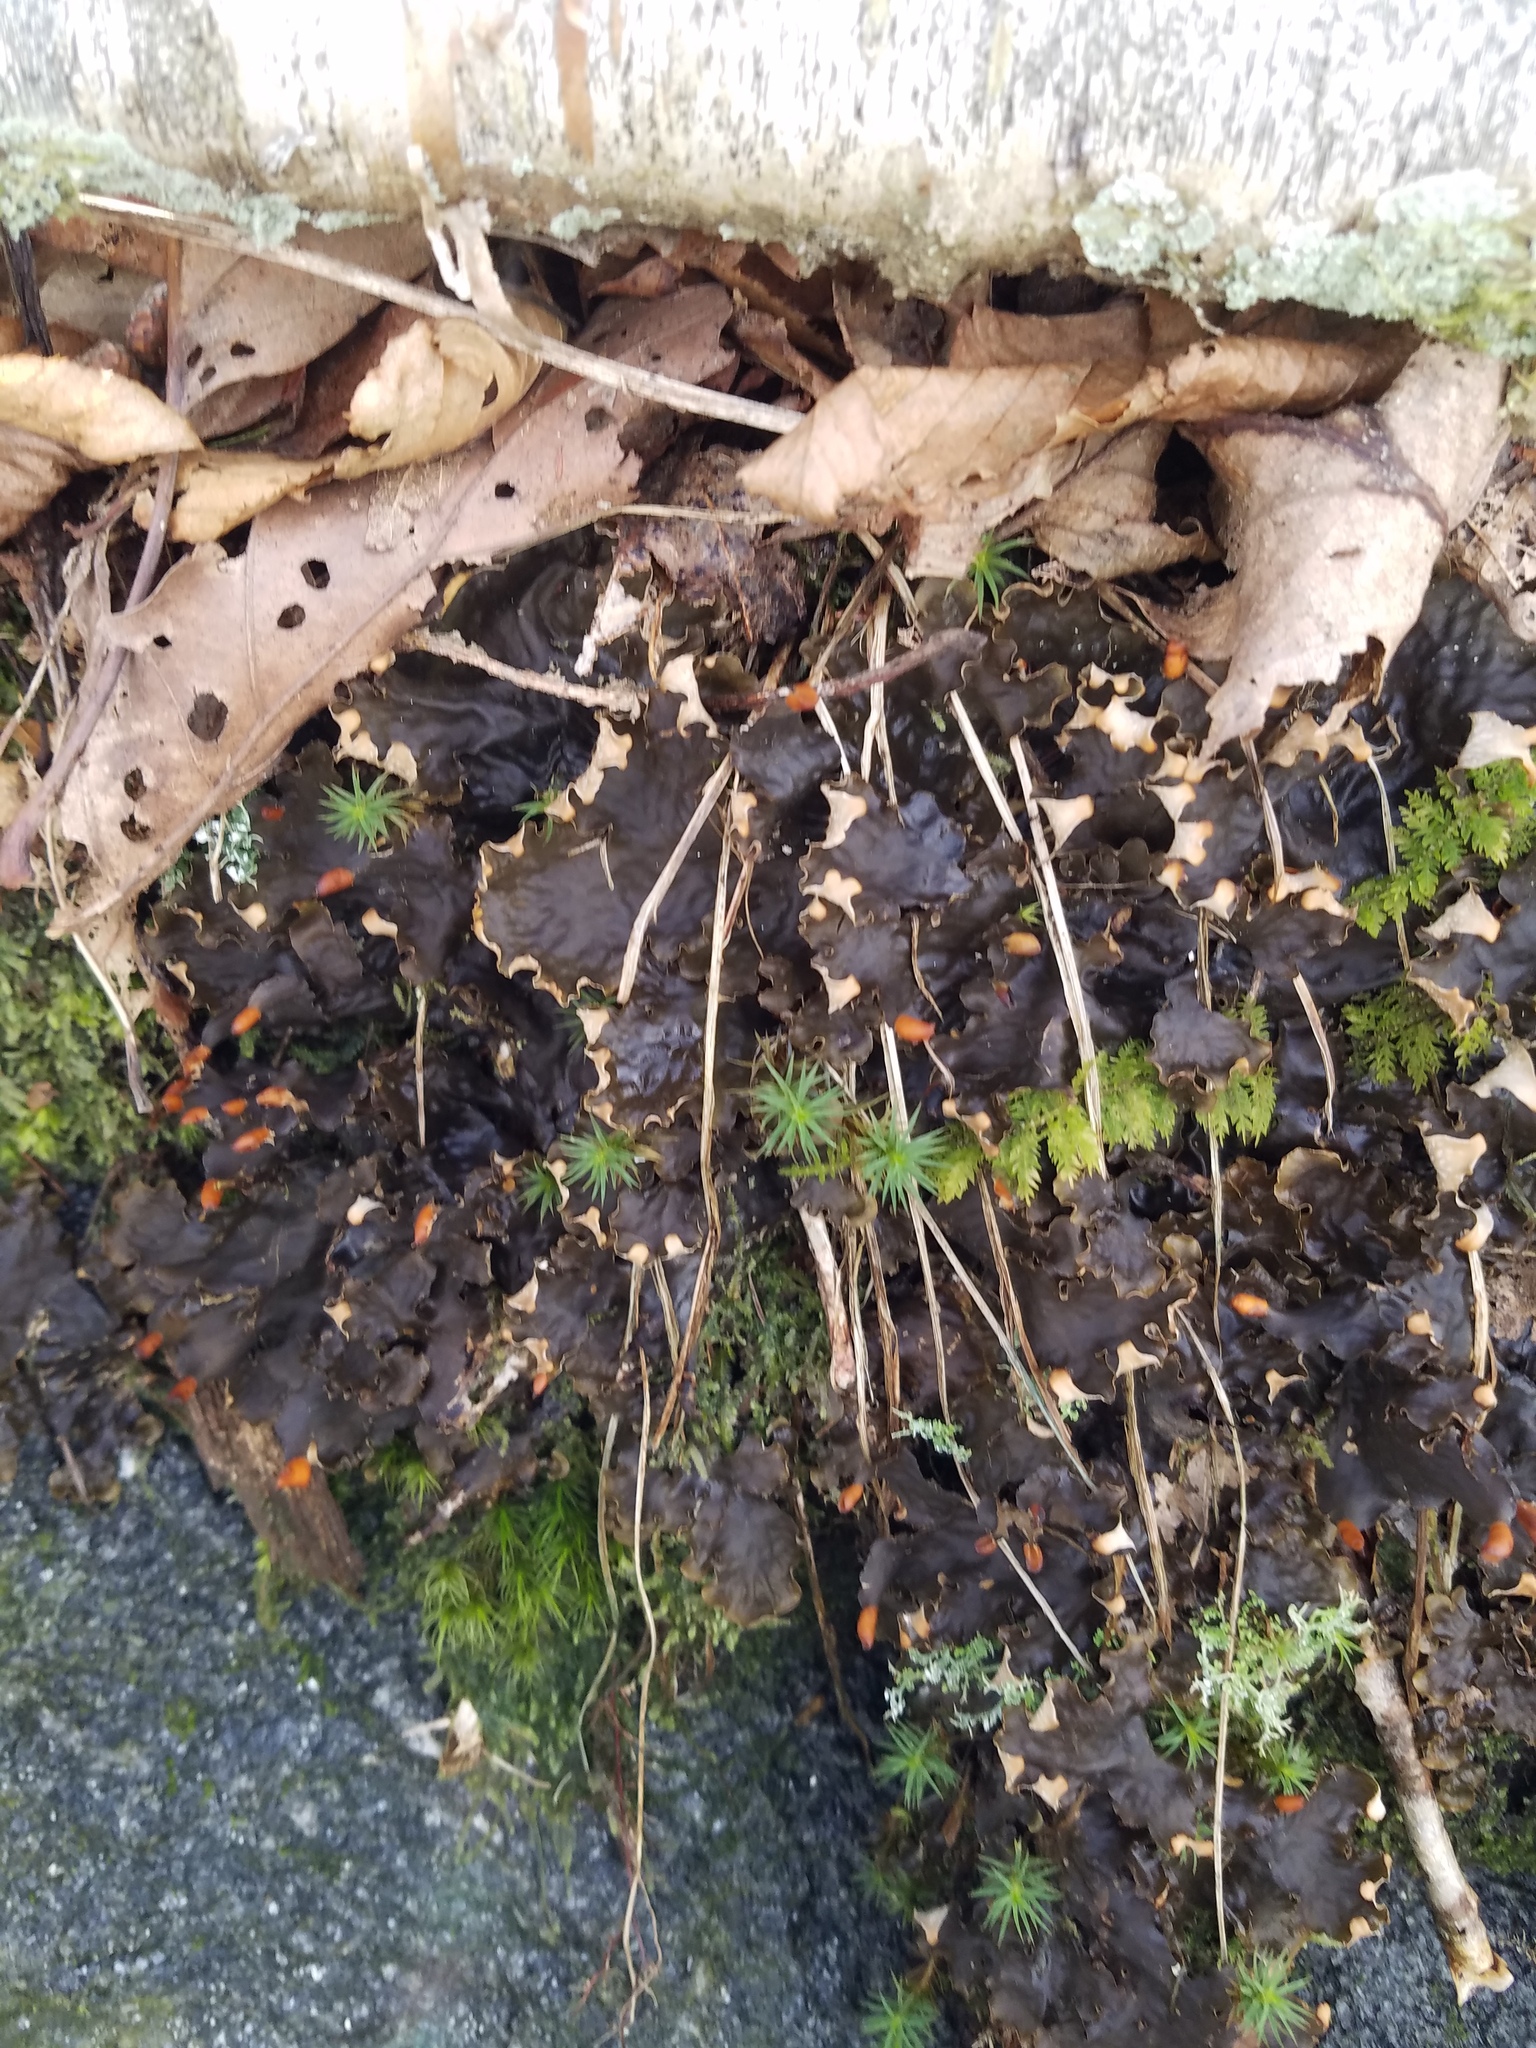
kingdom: Fungi
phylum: Ascomycota
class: Lecanoromycetes
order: Peltigerales
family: Peltigeraceae
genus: Peltigera
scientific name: Peltigera neopolydactyla
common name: Carpet pelt
